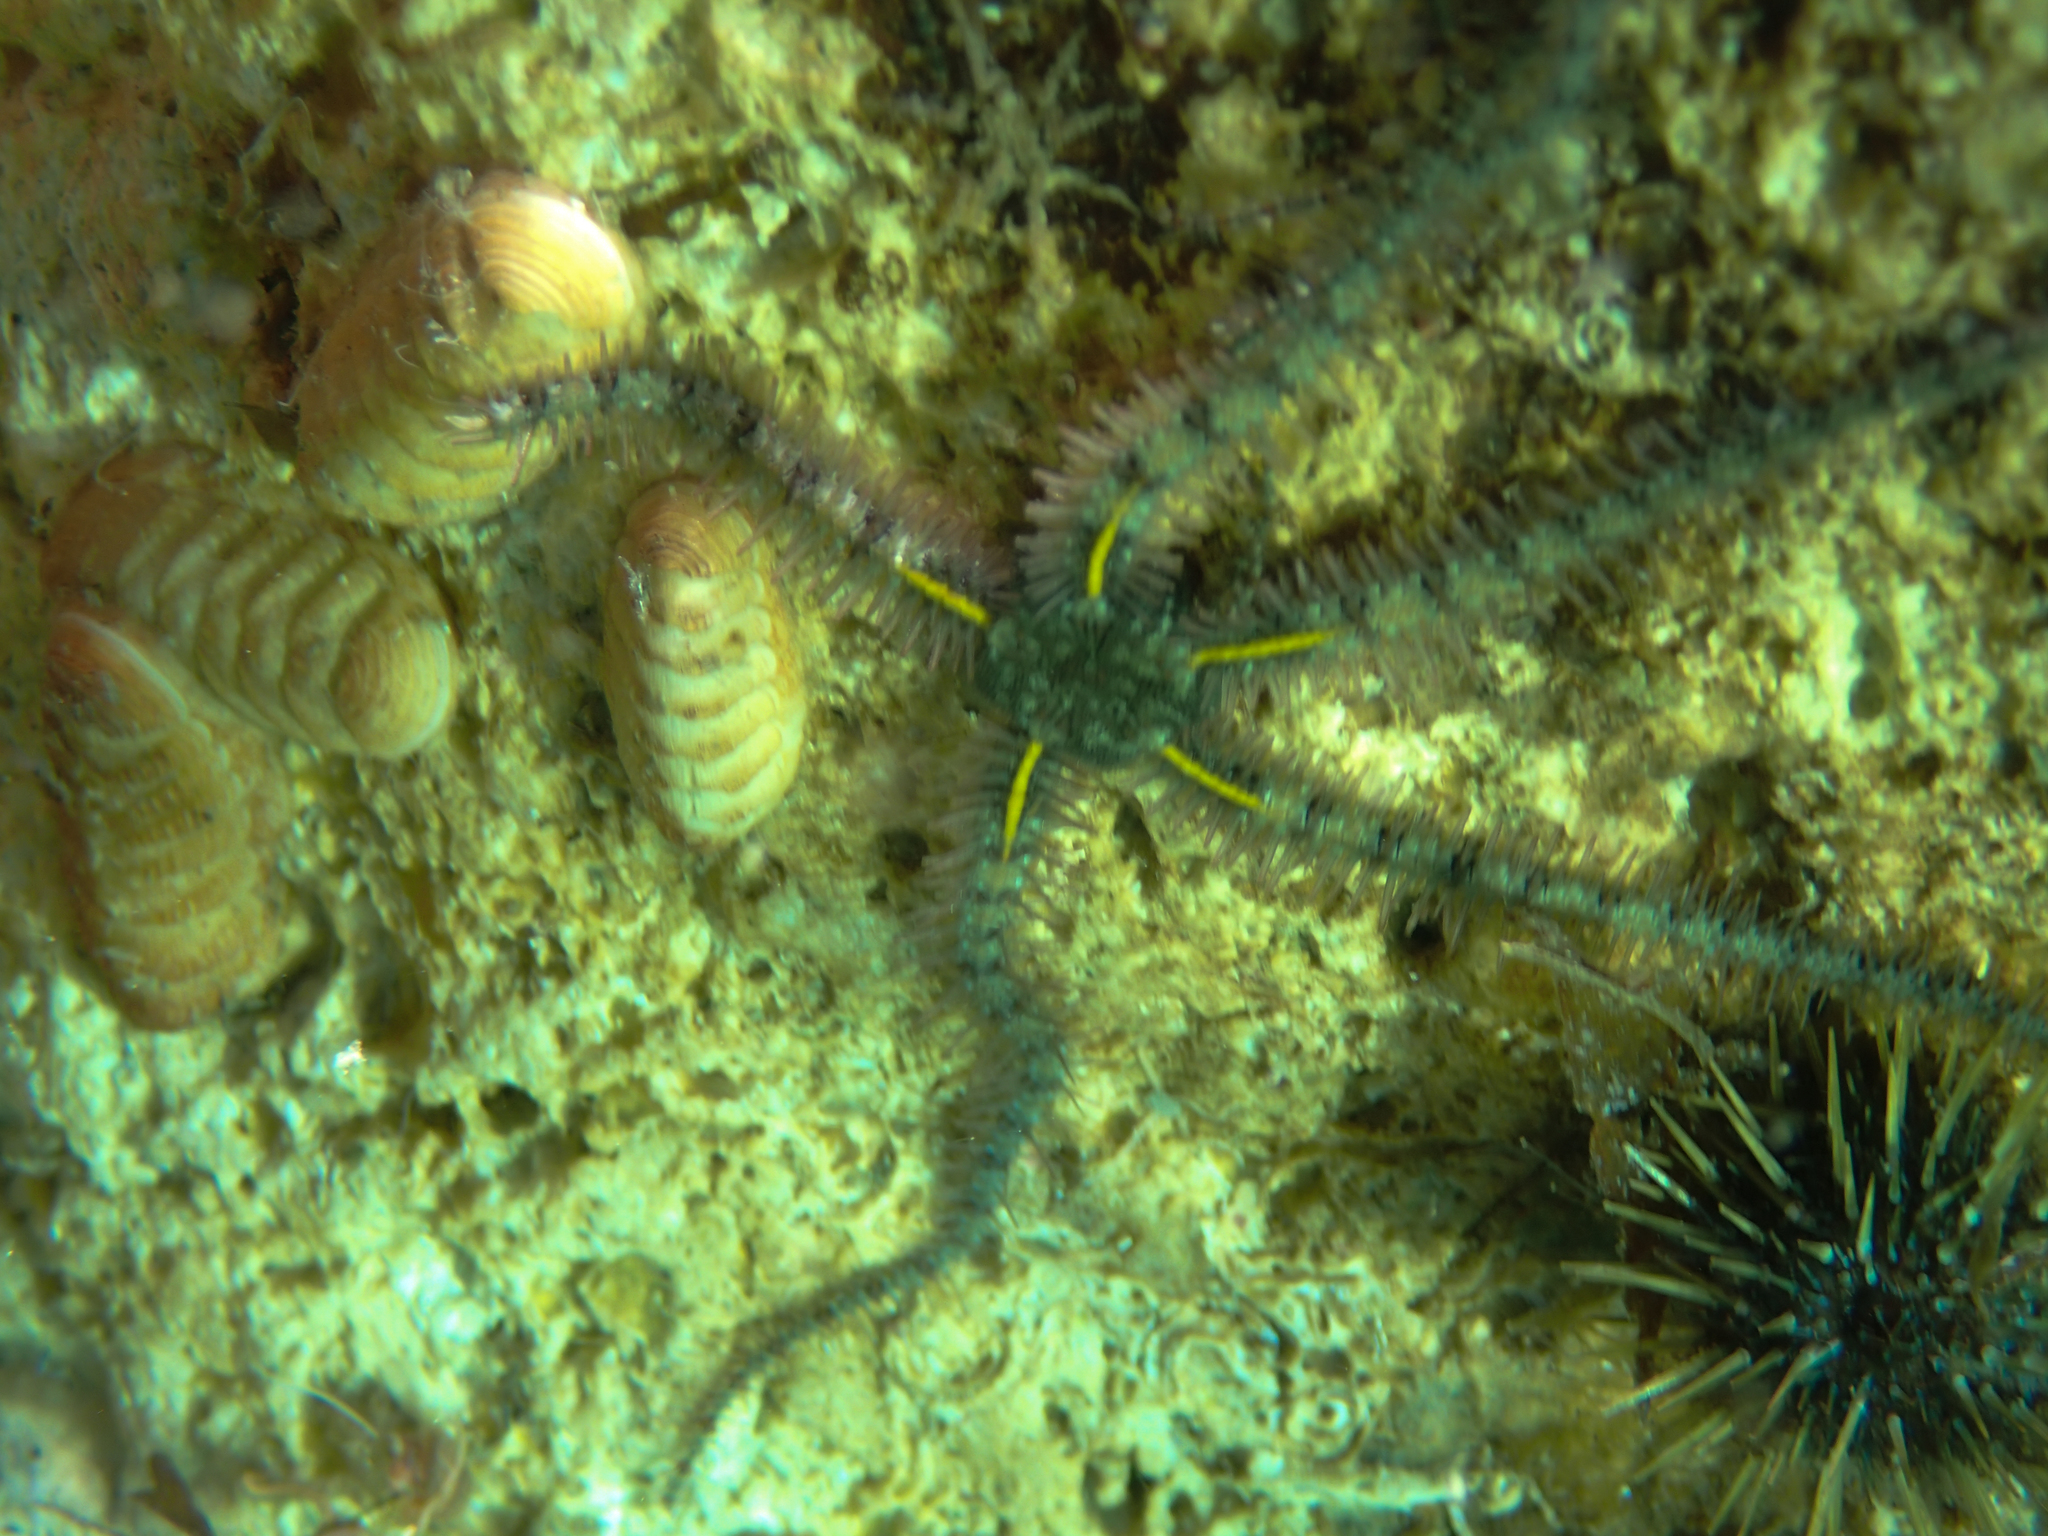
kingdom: Animalia
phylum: Echinodermata
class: Ophiuroidea
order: Amphilepidida
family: Ophiotrichidae
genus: Ophiothrix
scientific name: Ophiothrix fragilis
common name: Common brittlestar
